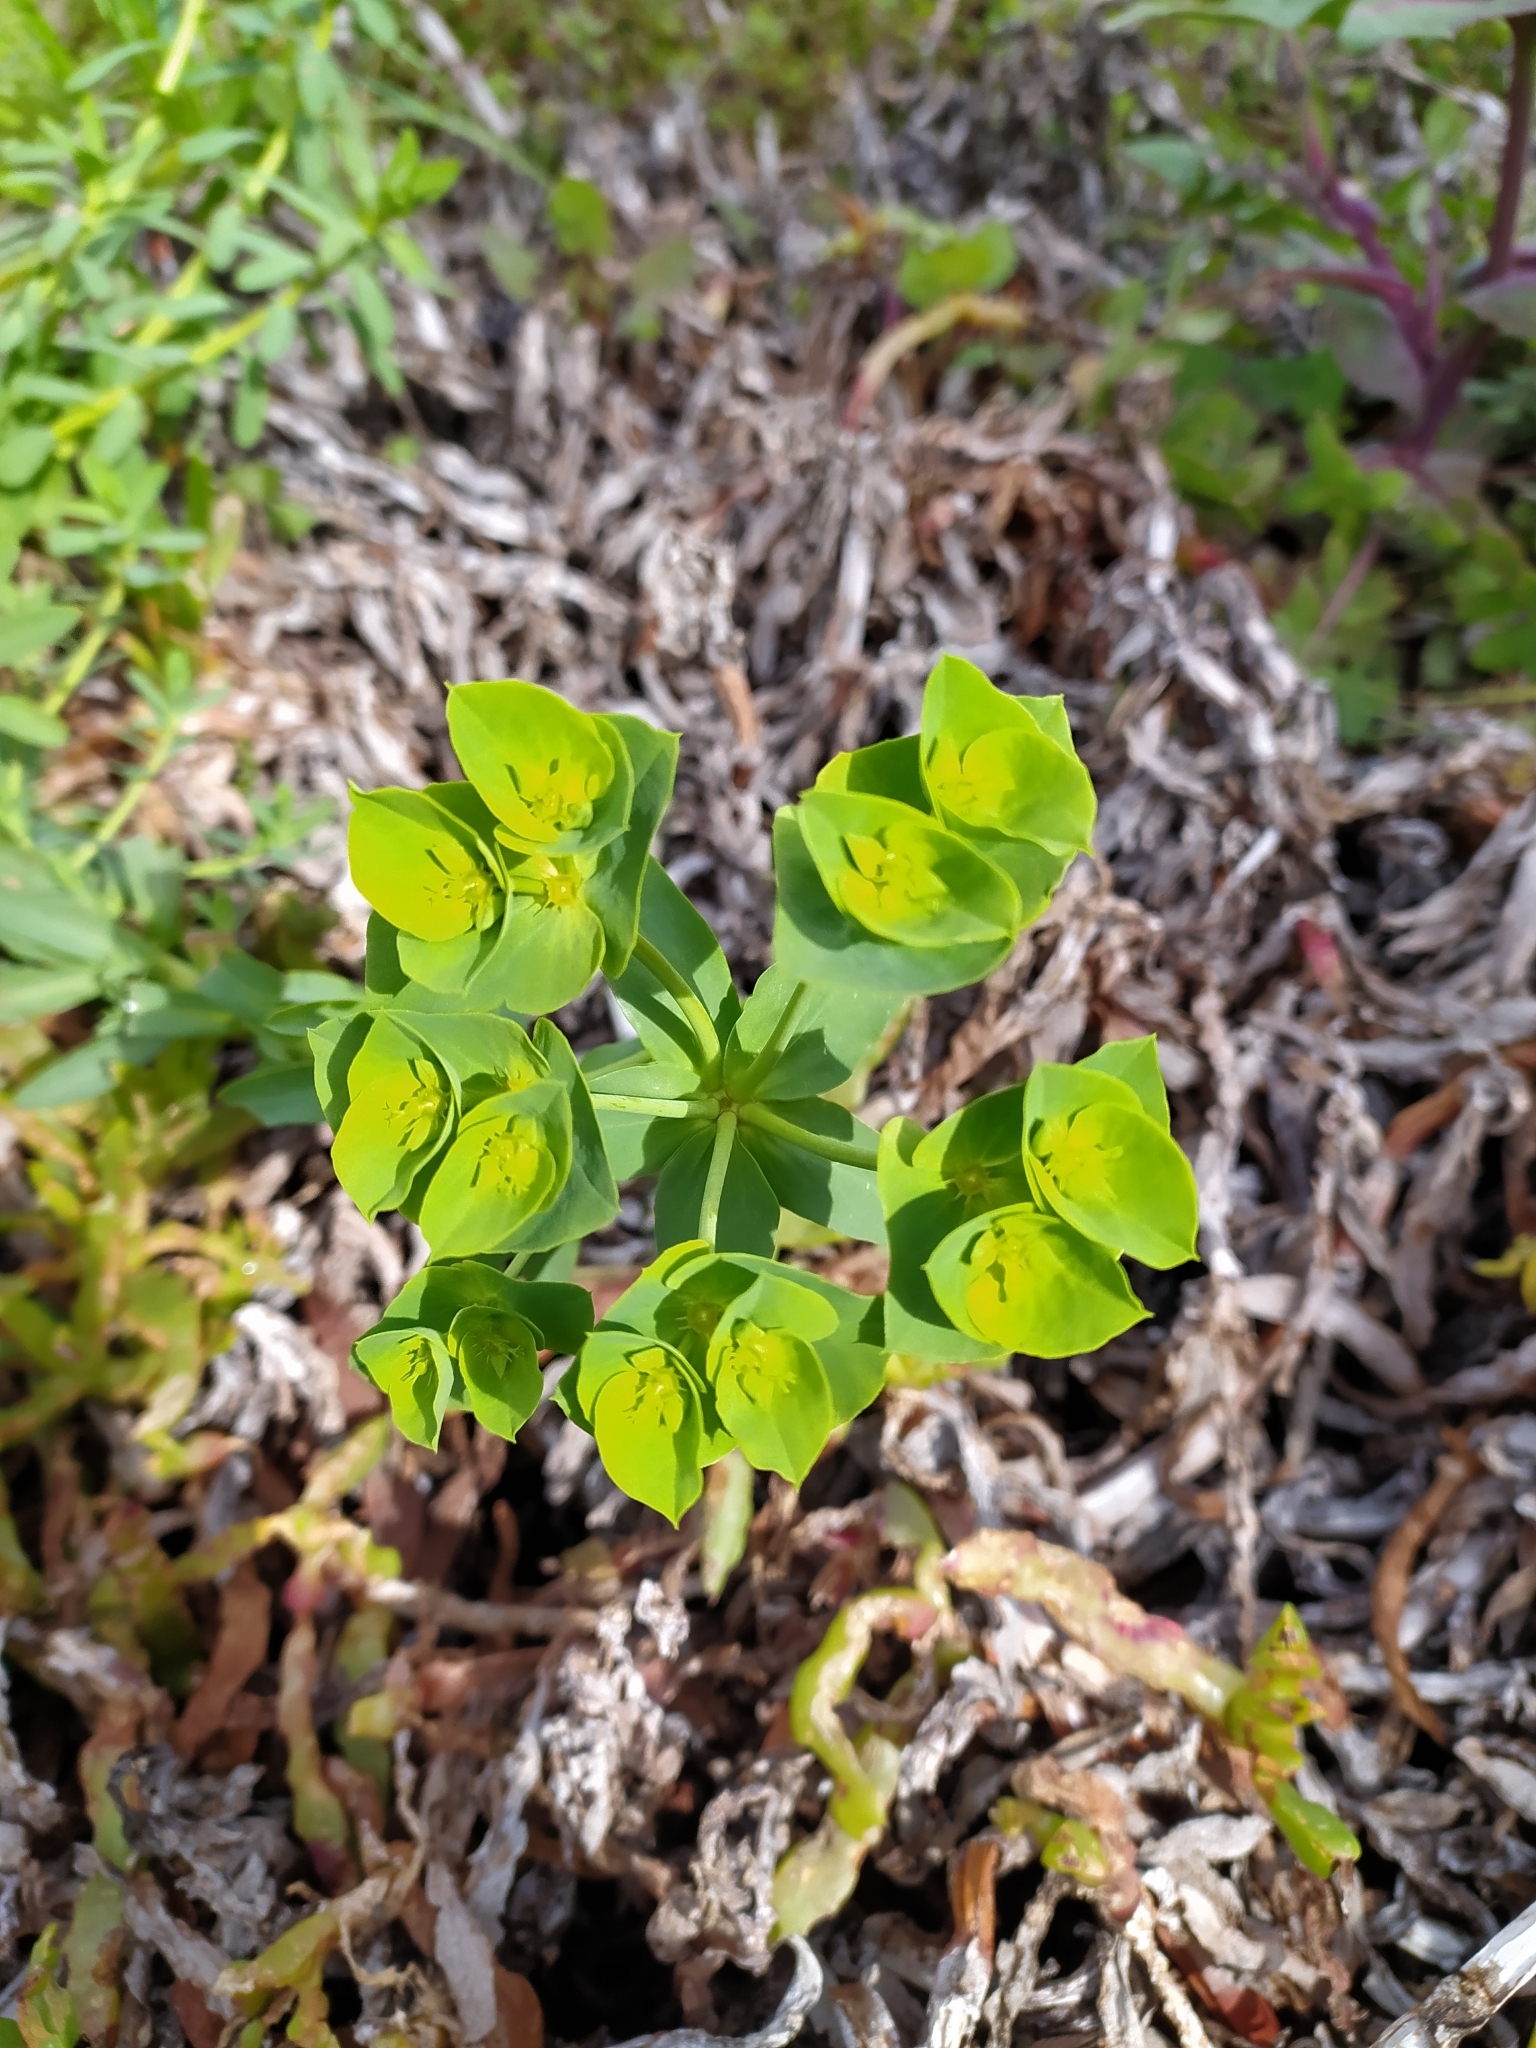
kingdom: Plantae
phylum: Tracheophyta
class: Magnoliopsida
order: Malpighiales
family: Euphorbiaceae
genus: Euphorbia
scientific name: Euphorbia terracina
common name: Geraldton carnation weed
